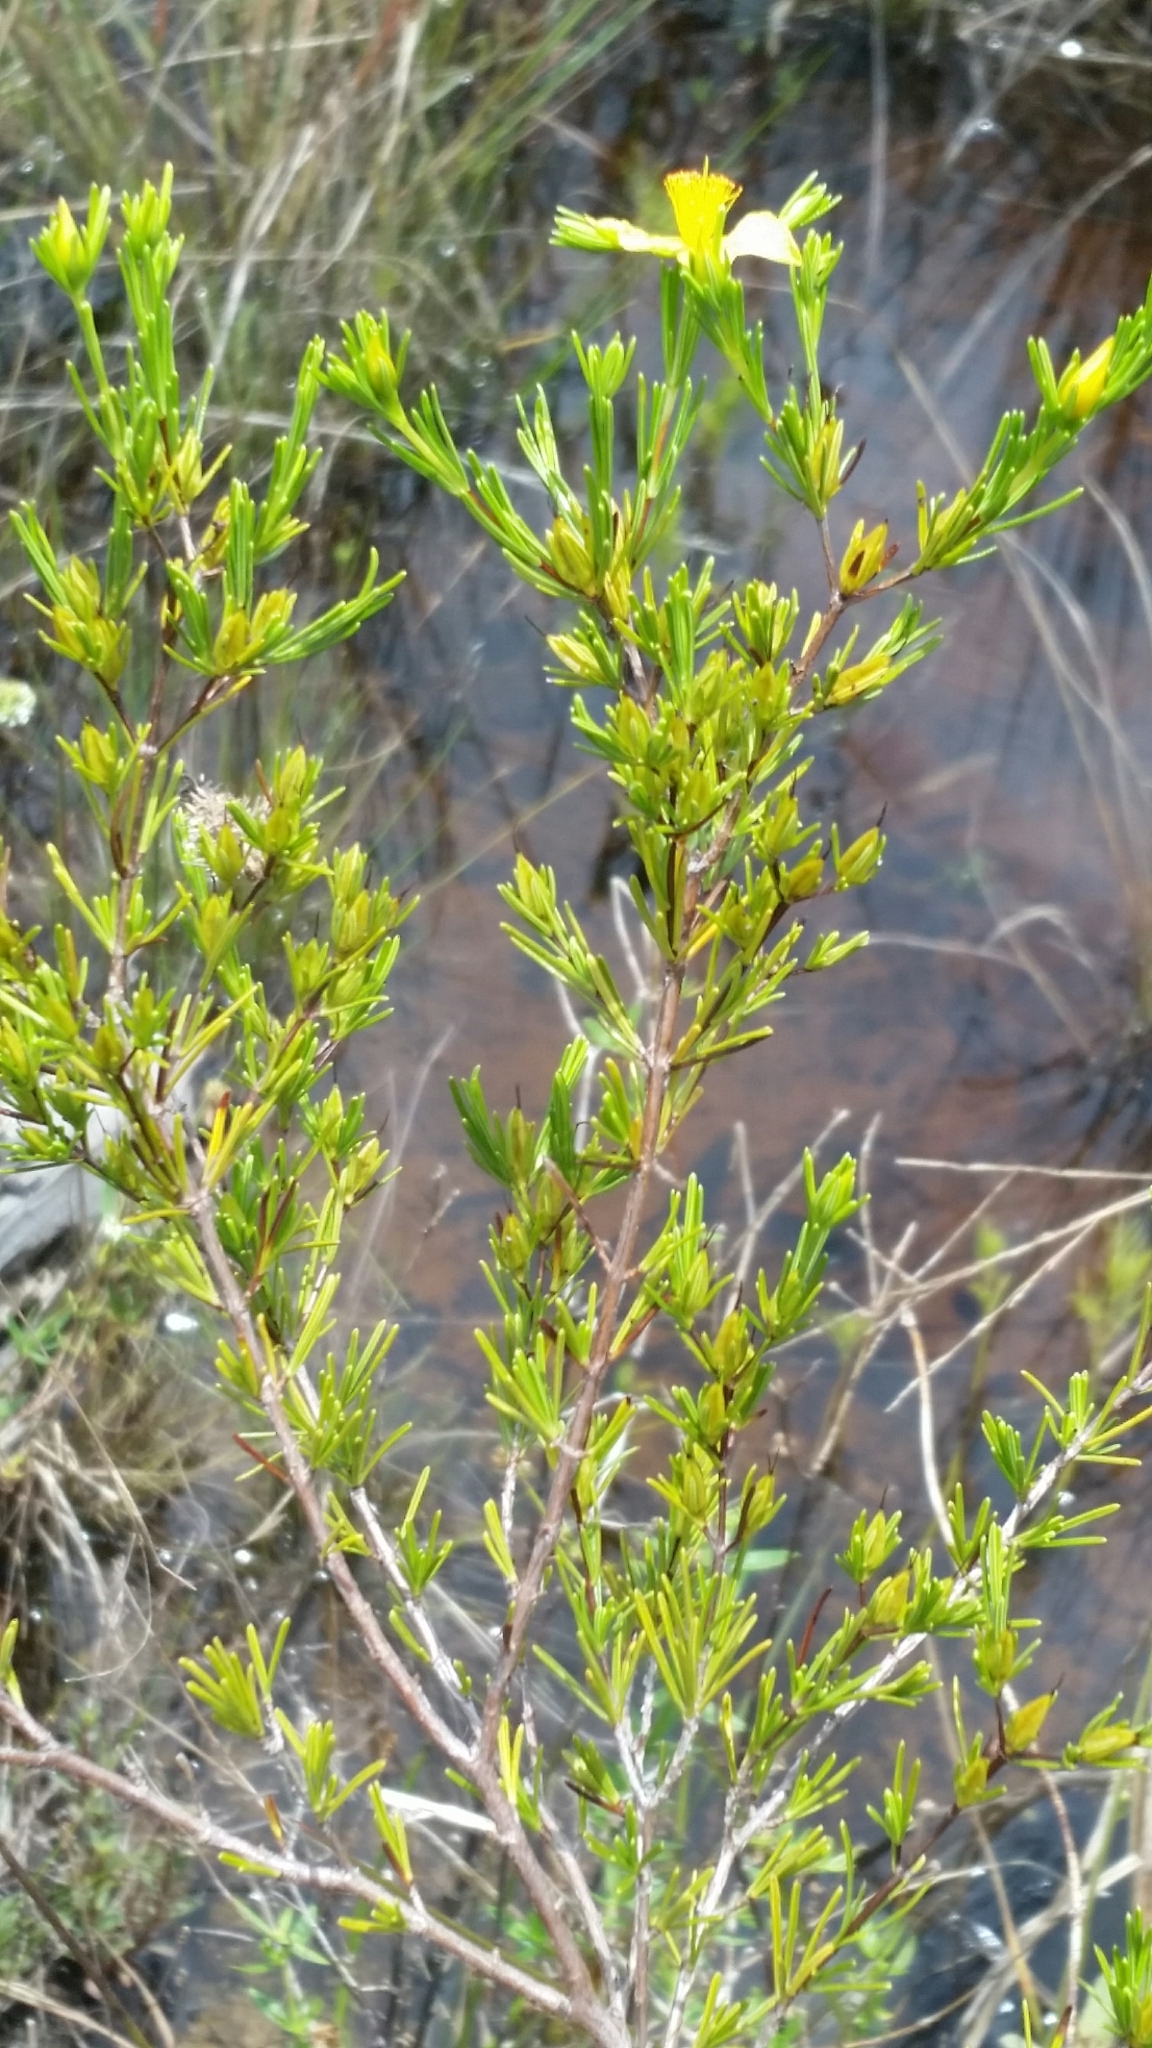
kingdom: Plantae
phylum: Tracheophyta
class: Magnoliopsida
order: Malpighiales
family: Hypericaceae
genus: Hypericum
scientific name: Hypericum fasciculatum
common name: Peelbark st. john's wort
